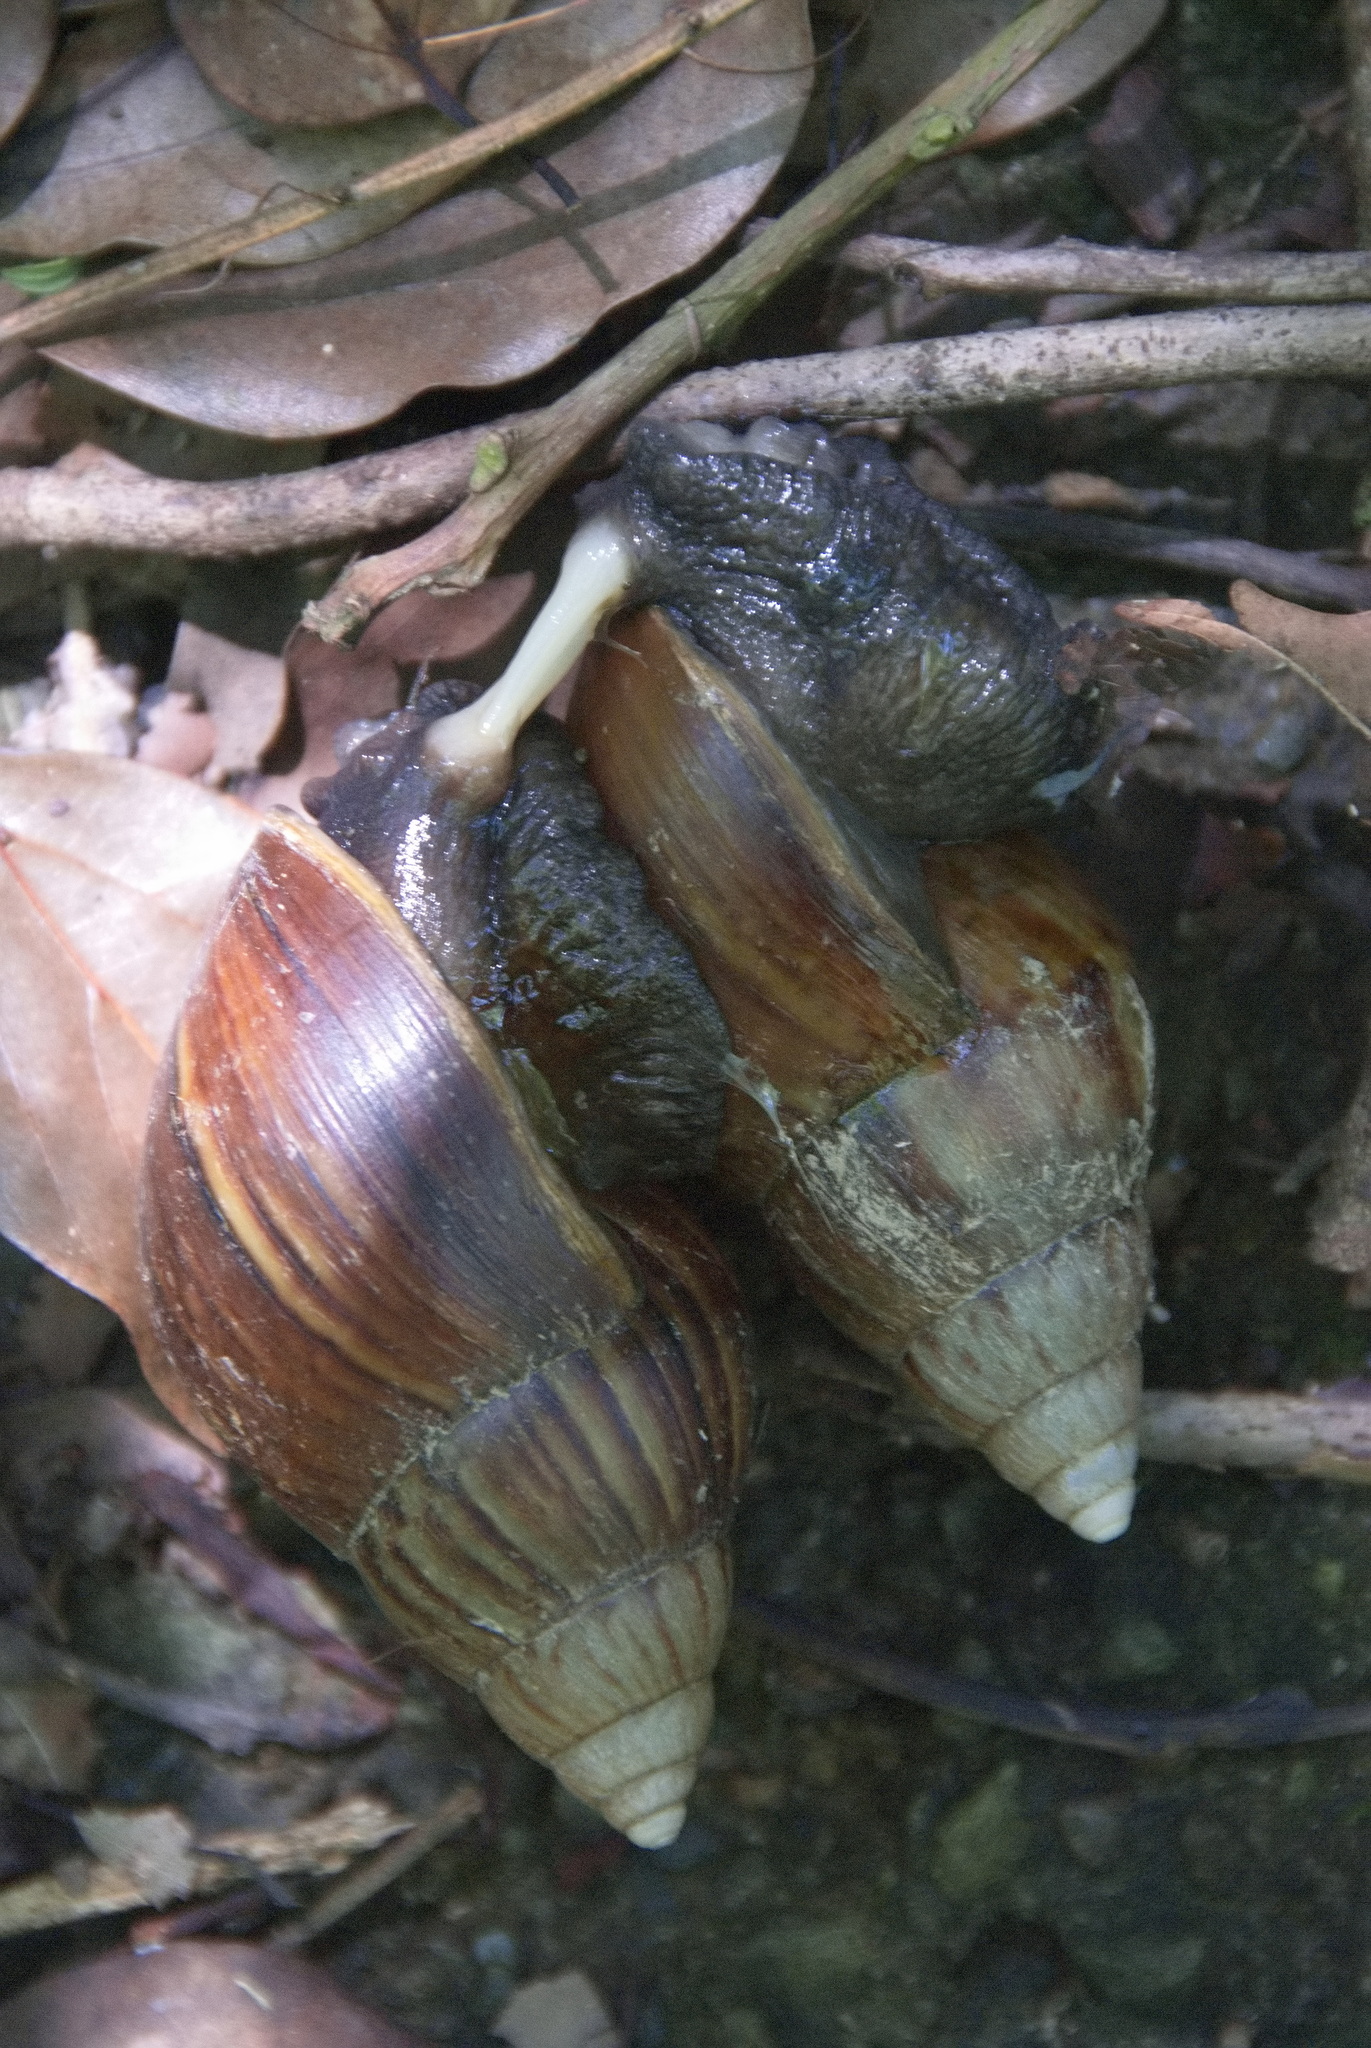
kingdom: Animalia
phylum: Mollusca
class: Gastropoda
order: Stylommatophora
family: Achatinidae
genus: Lissachatina
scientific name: Lissachatina fulica
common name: Giant african snail
